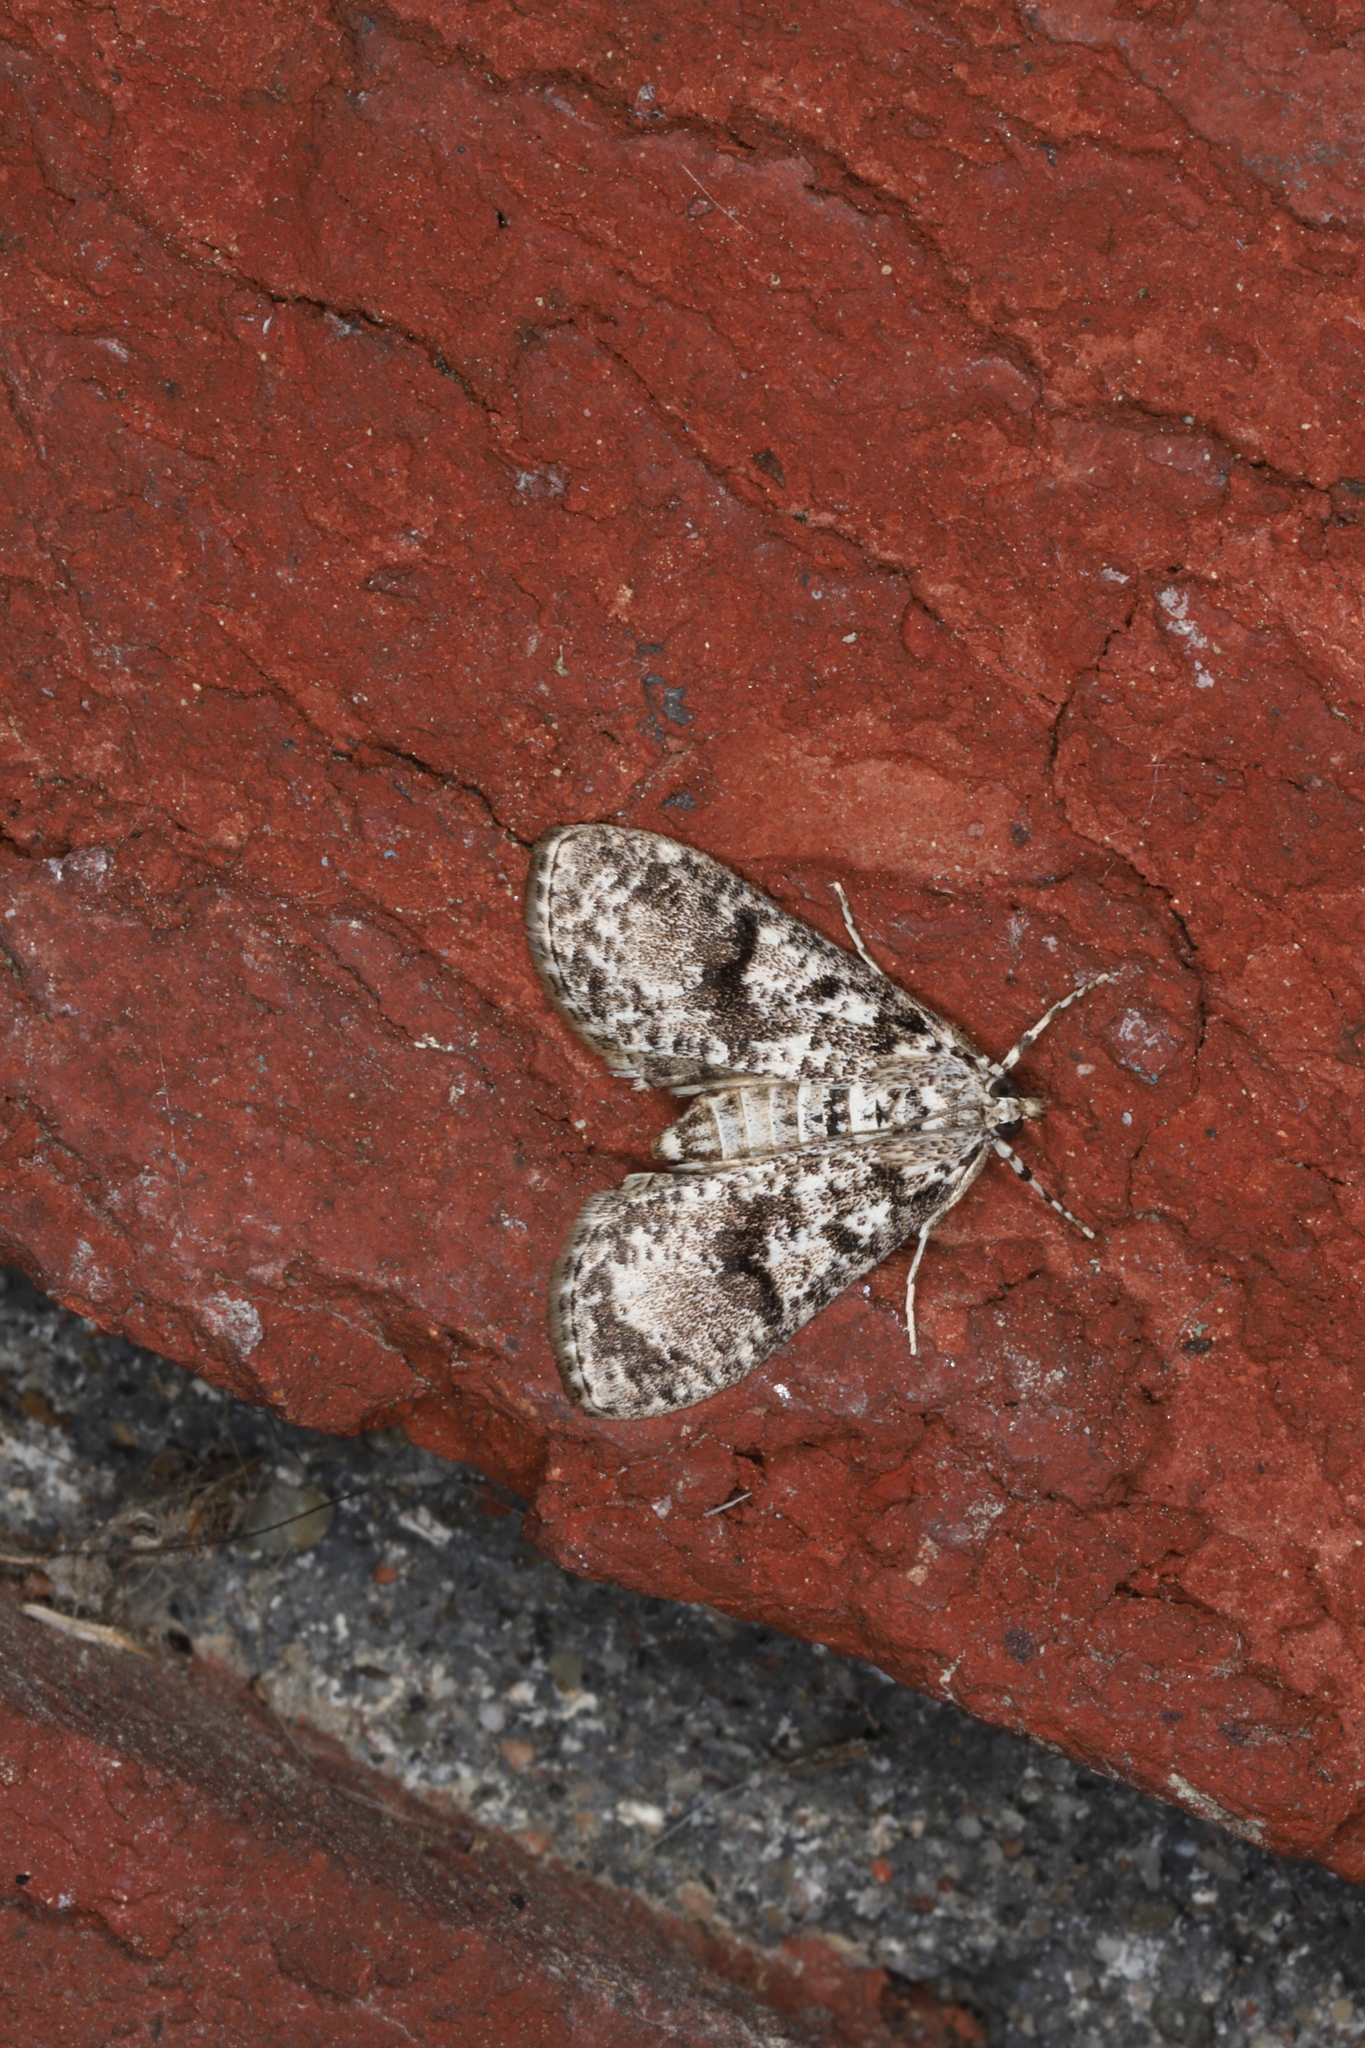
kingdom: Animalia
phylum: Arthropoda
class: Insecta
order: Lepidoptera
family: Crambidae
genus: Palpita
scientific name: Palpita magniferalis
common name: Splendid palpita moth
